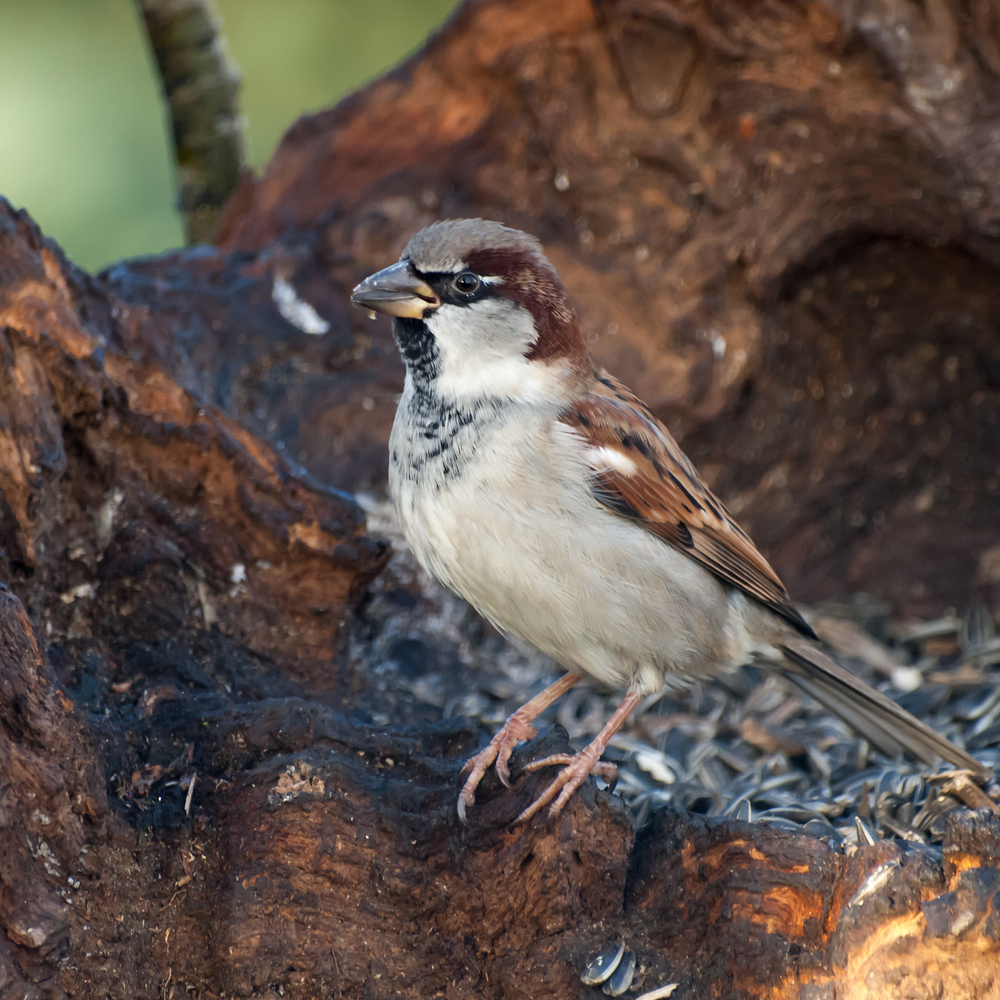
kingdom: Animalia
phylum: Chordata
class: Aves
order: Passeriformes
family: Passeridae
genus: Passer
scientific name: Passer domesticus
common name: House sparrow
